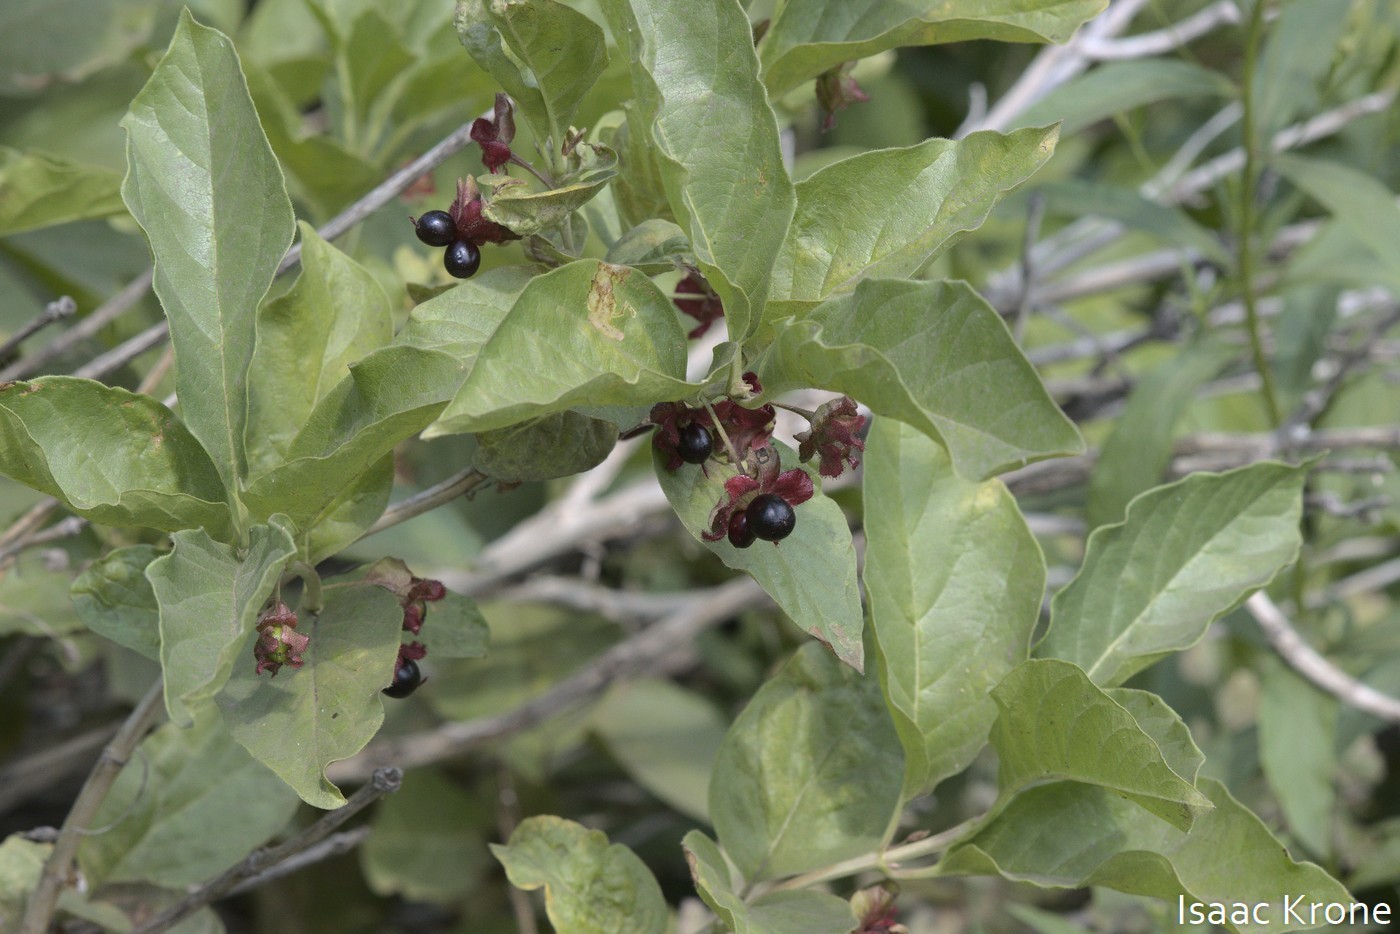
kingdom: Plantae
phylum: Tracheophyta
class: Magnoliopsida
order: Dipsacales
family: Caprifoliaceae
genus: Lonicera
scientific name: Lonicera involucrata
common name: Californian honeysuckle
